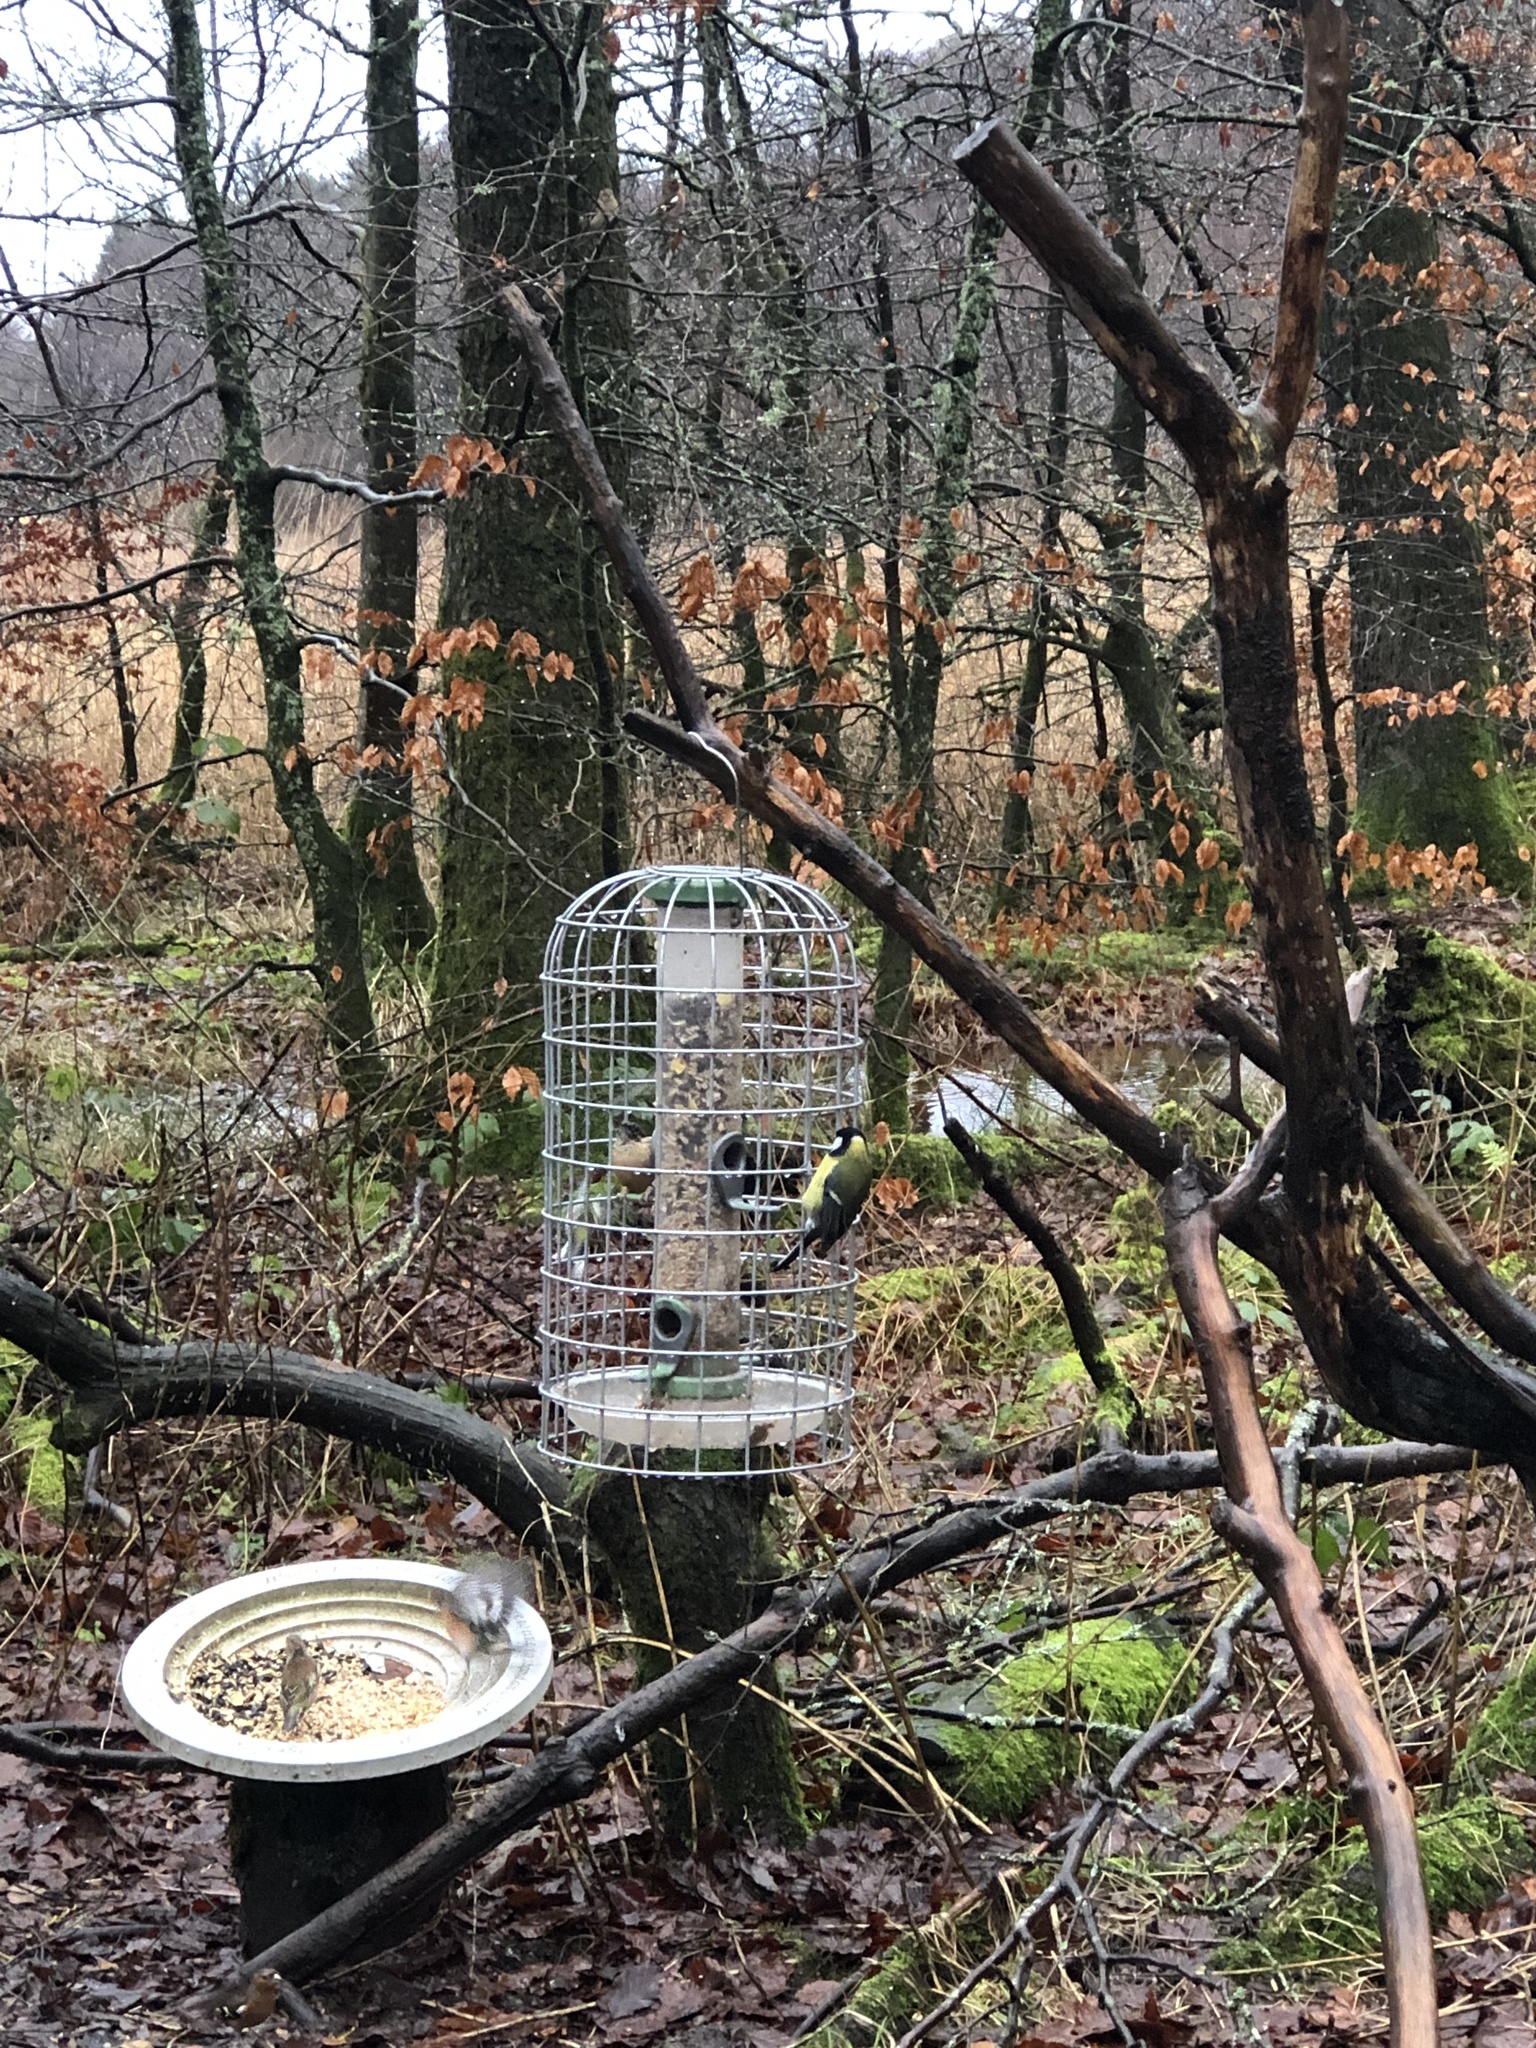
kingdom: Animalia
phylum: Chordata
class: Aves
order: Passeriformes
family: Paridae
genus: Parus
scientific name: Parus major
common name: Great tit
